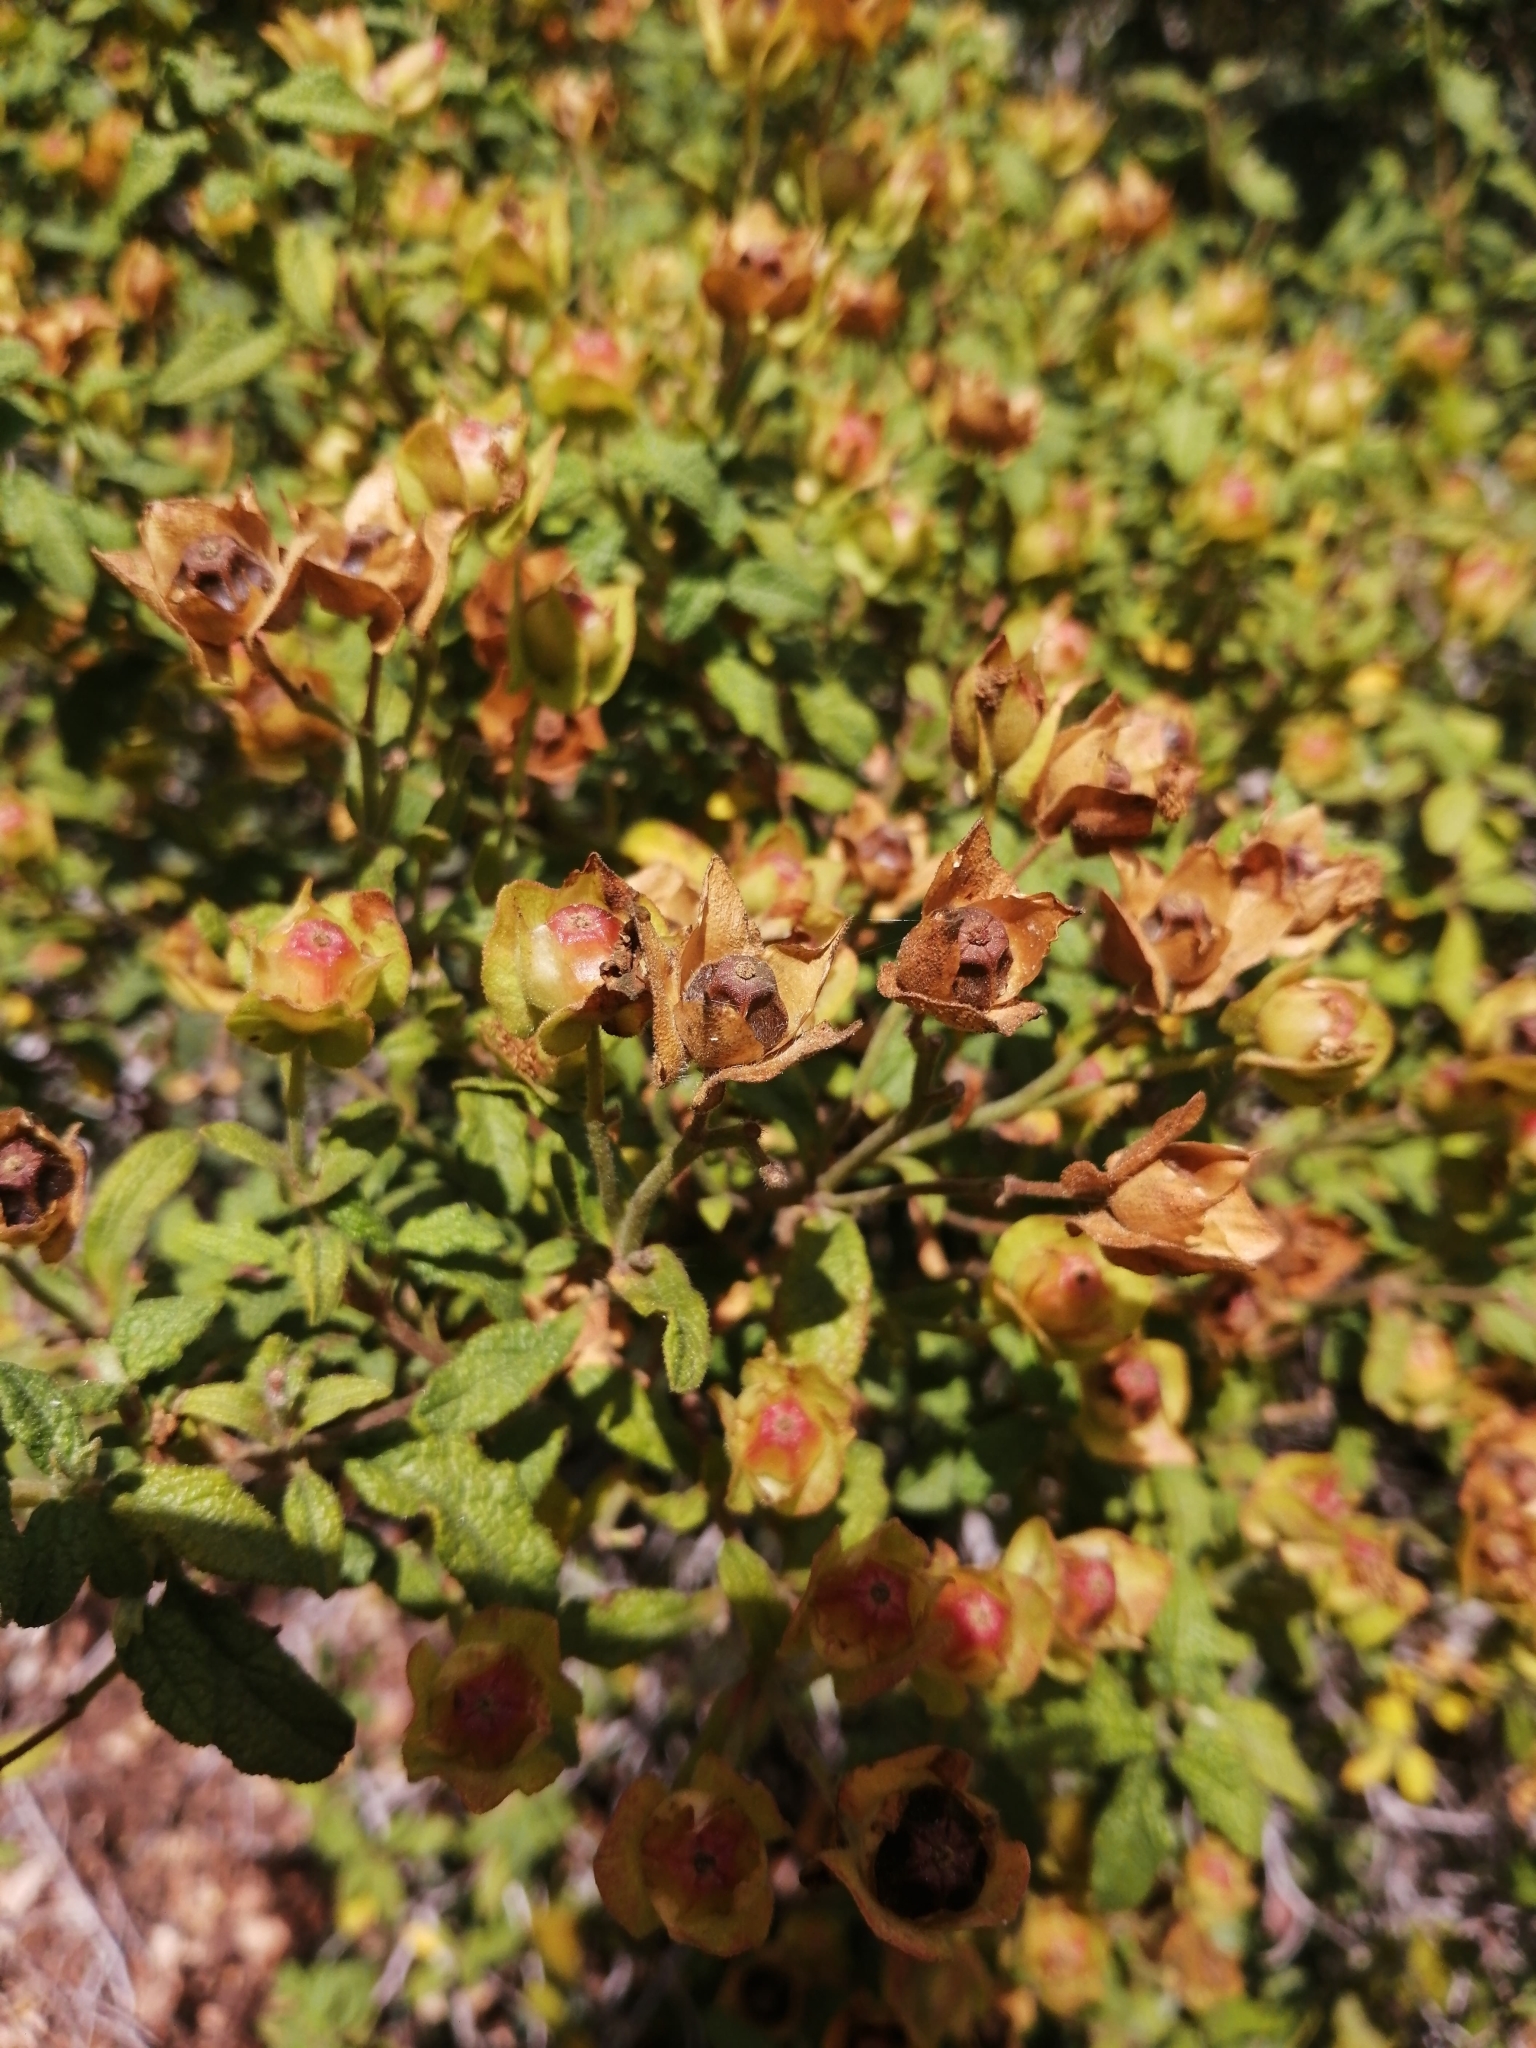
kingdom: Plantae
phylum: Tracheophyta
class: Magnoliopsida
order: Malvales
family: Cistaceae
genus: Cistus
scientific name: Cistus salviifolius
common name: Salvia cistus
